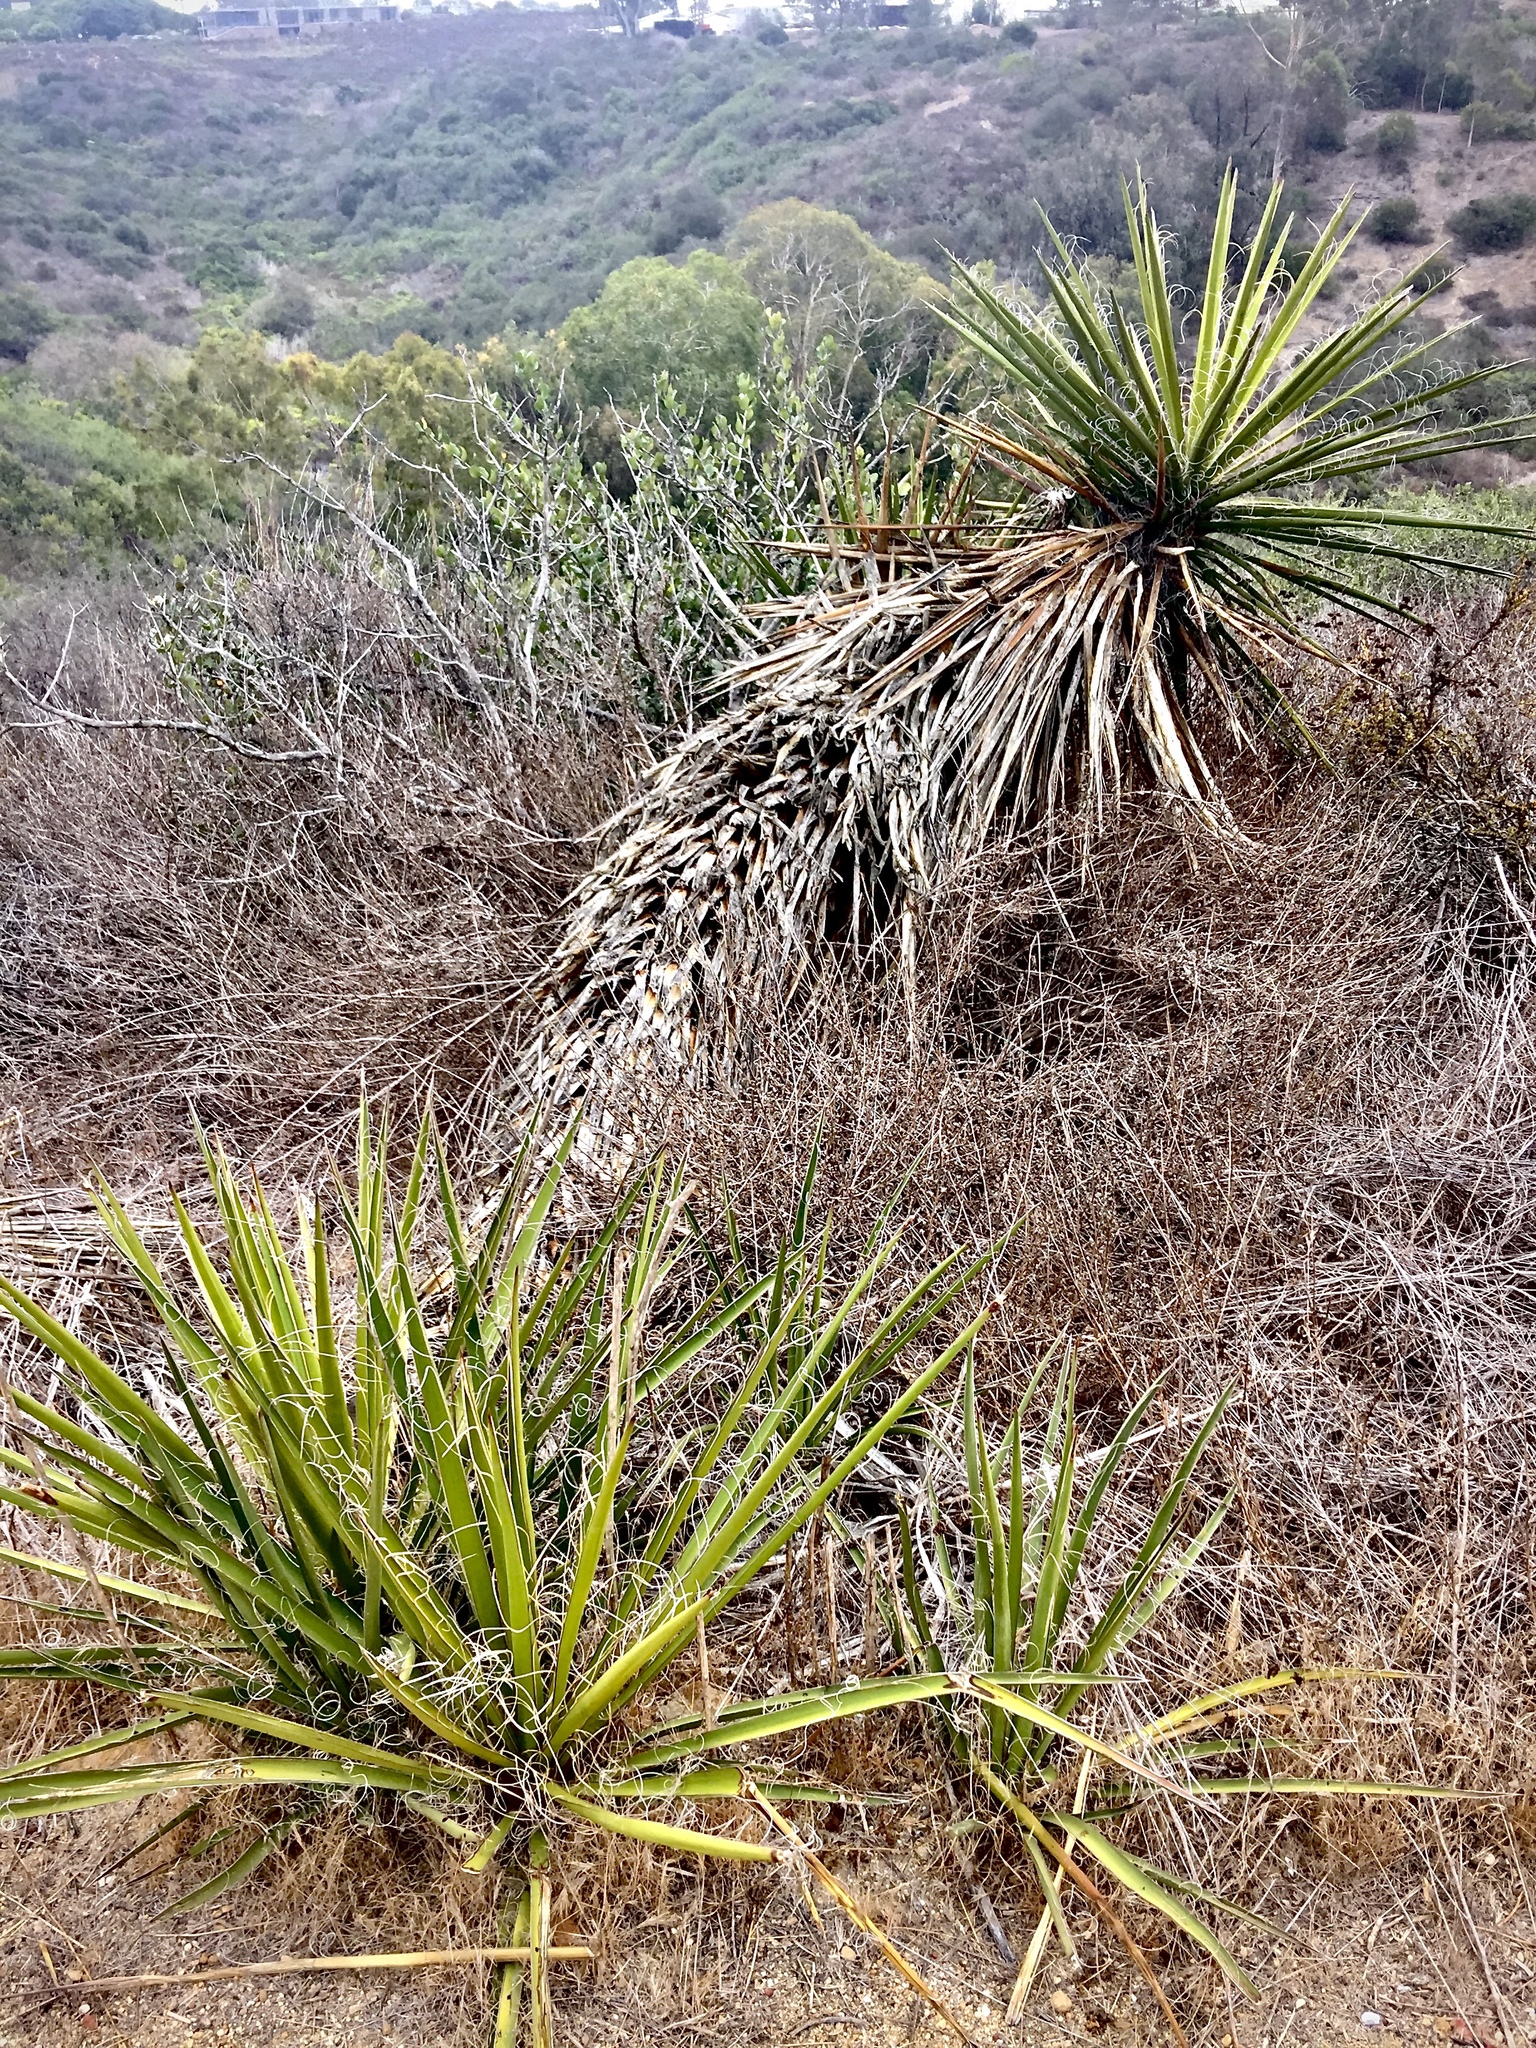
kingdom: Plantae
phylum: Tracheophyta
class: Liliopsida
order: Asparagales
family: Asparagaceae
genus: Yucca
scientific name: Yucca schidigera
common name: Mojave yucca
